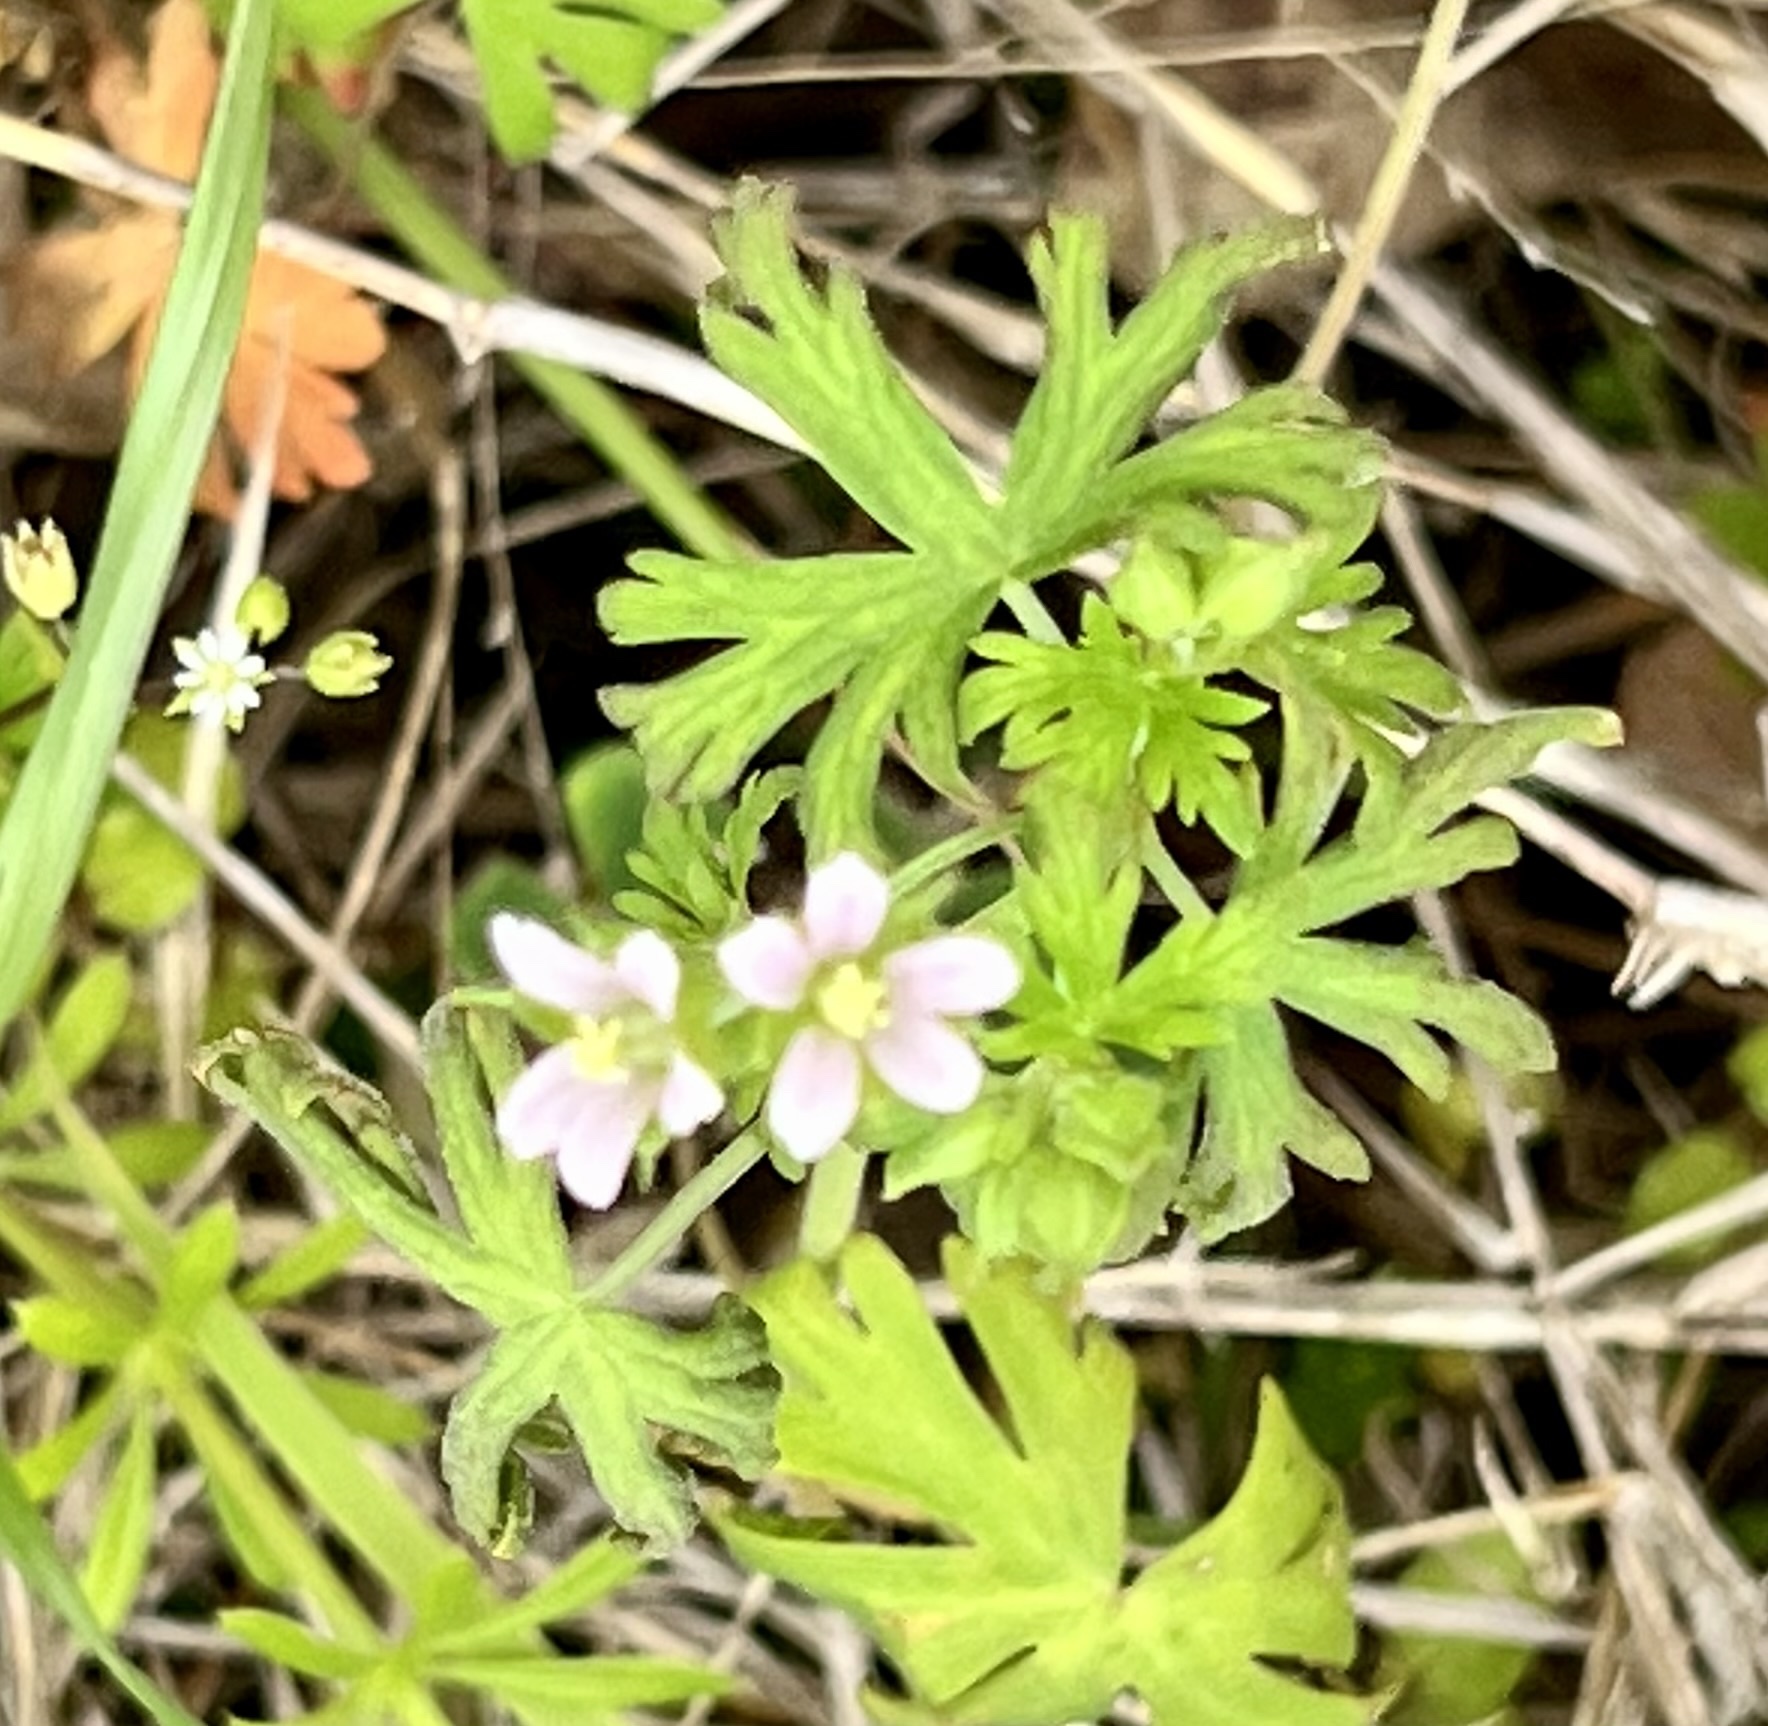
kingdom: Plantae
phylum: Tracheophyta
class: Magnoliopsida
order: Geraniales
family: Geraniaceae
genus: Geranium
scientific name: Geranium carolinianum
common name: Carolina crane's-bill
